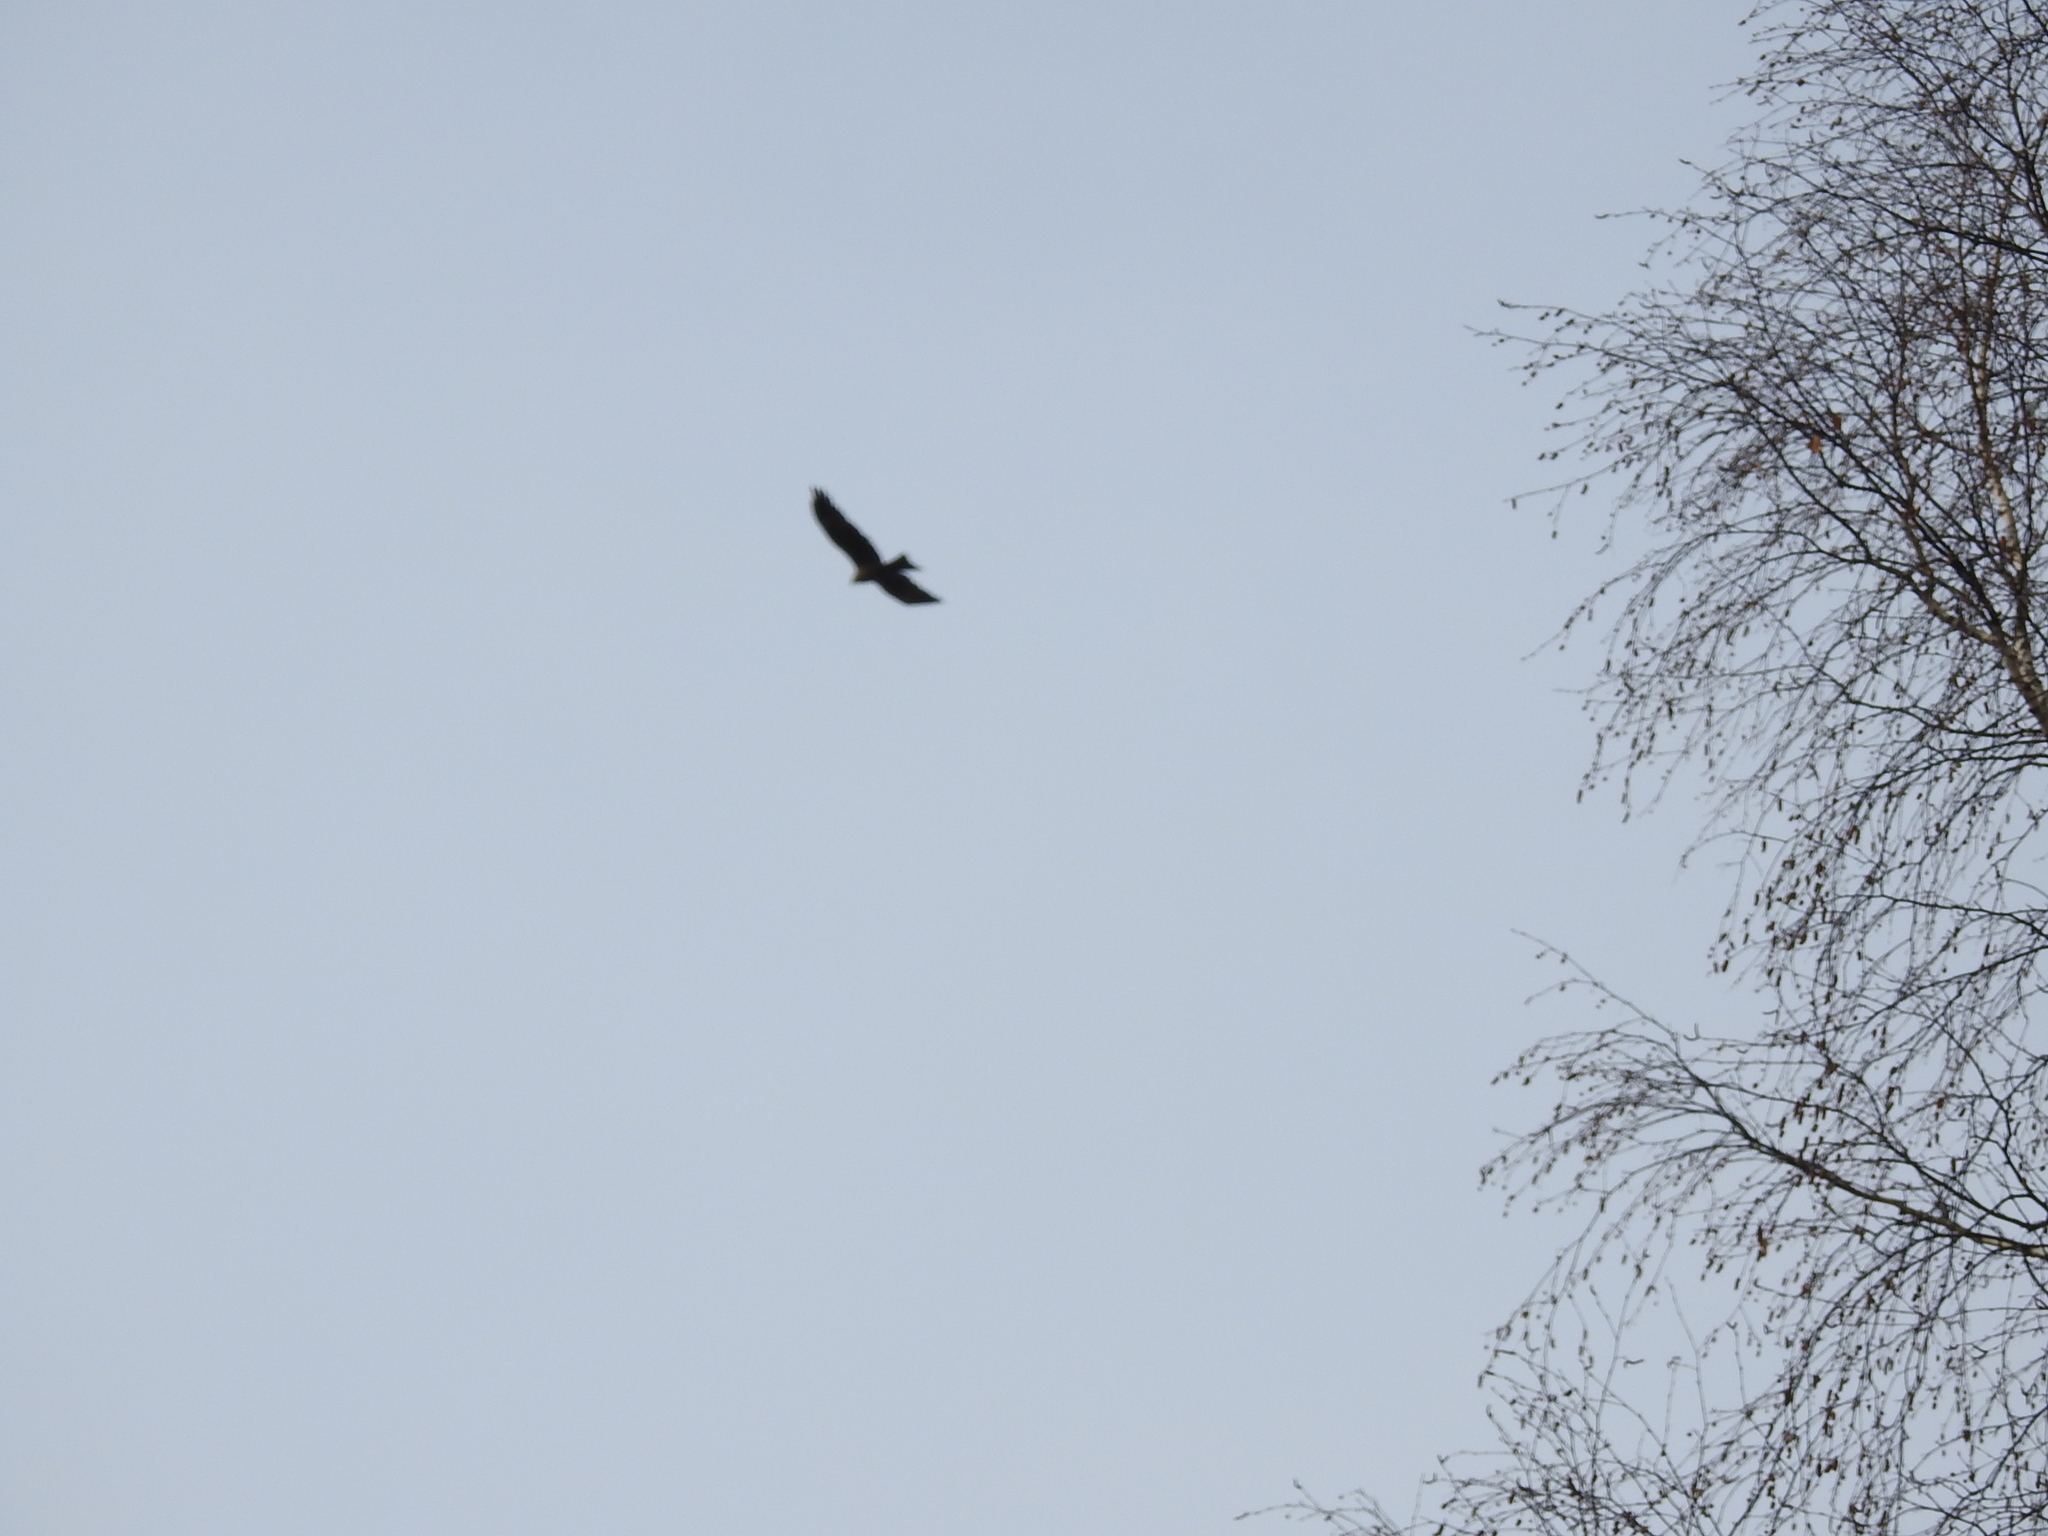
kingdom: Animalia
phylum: Chordata
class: Aves
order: Accipitriformes
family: Accipitridae
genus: Milvus
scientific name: Milvus migrans
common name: Black kite
